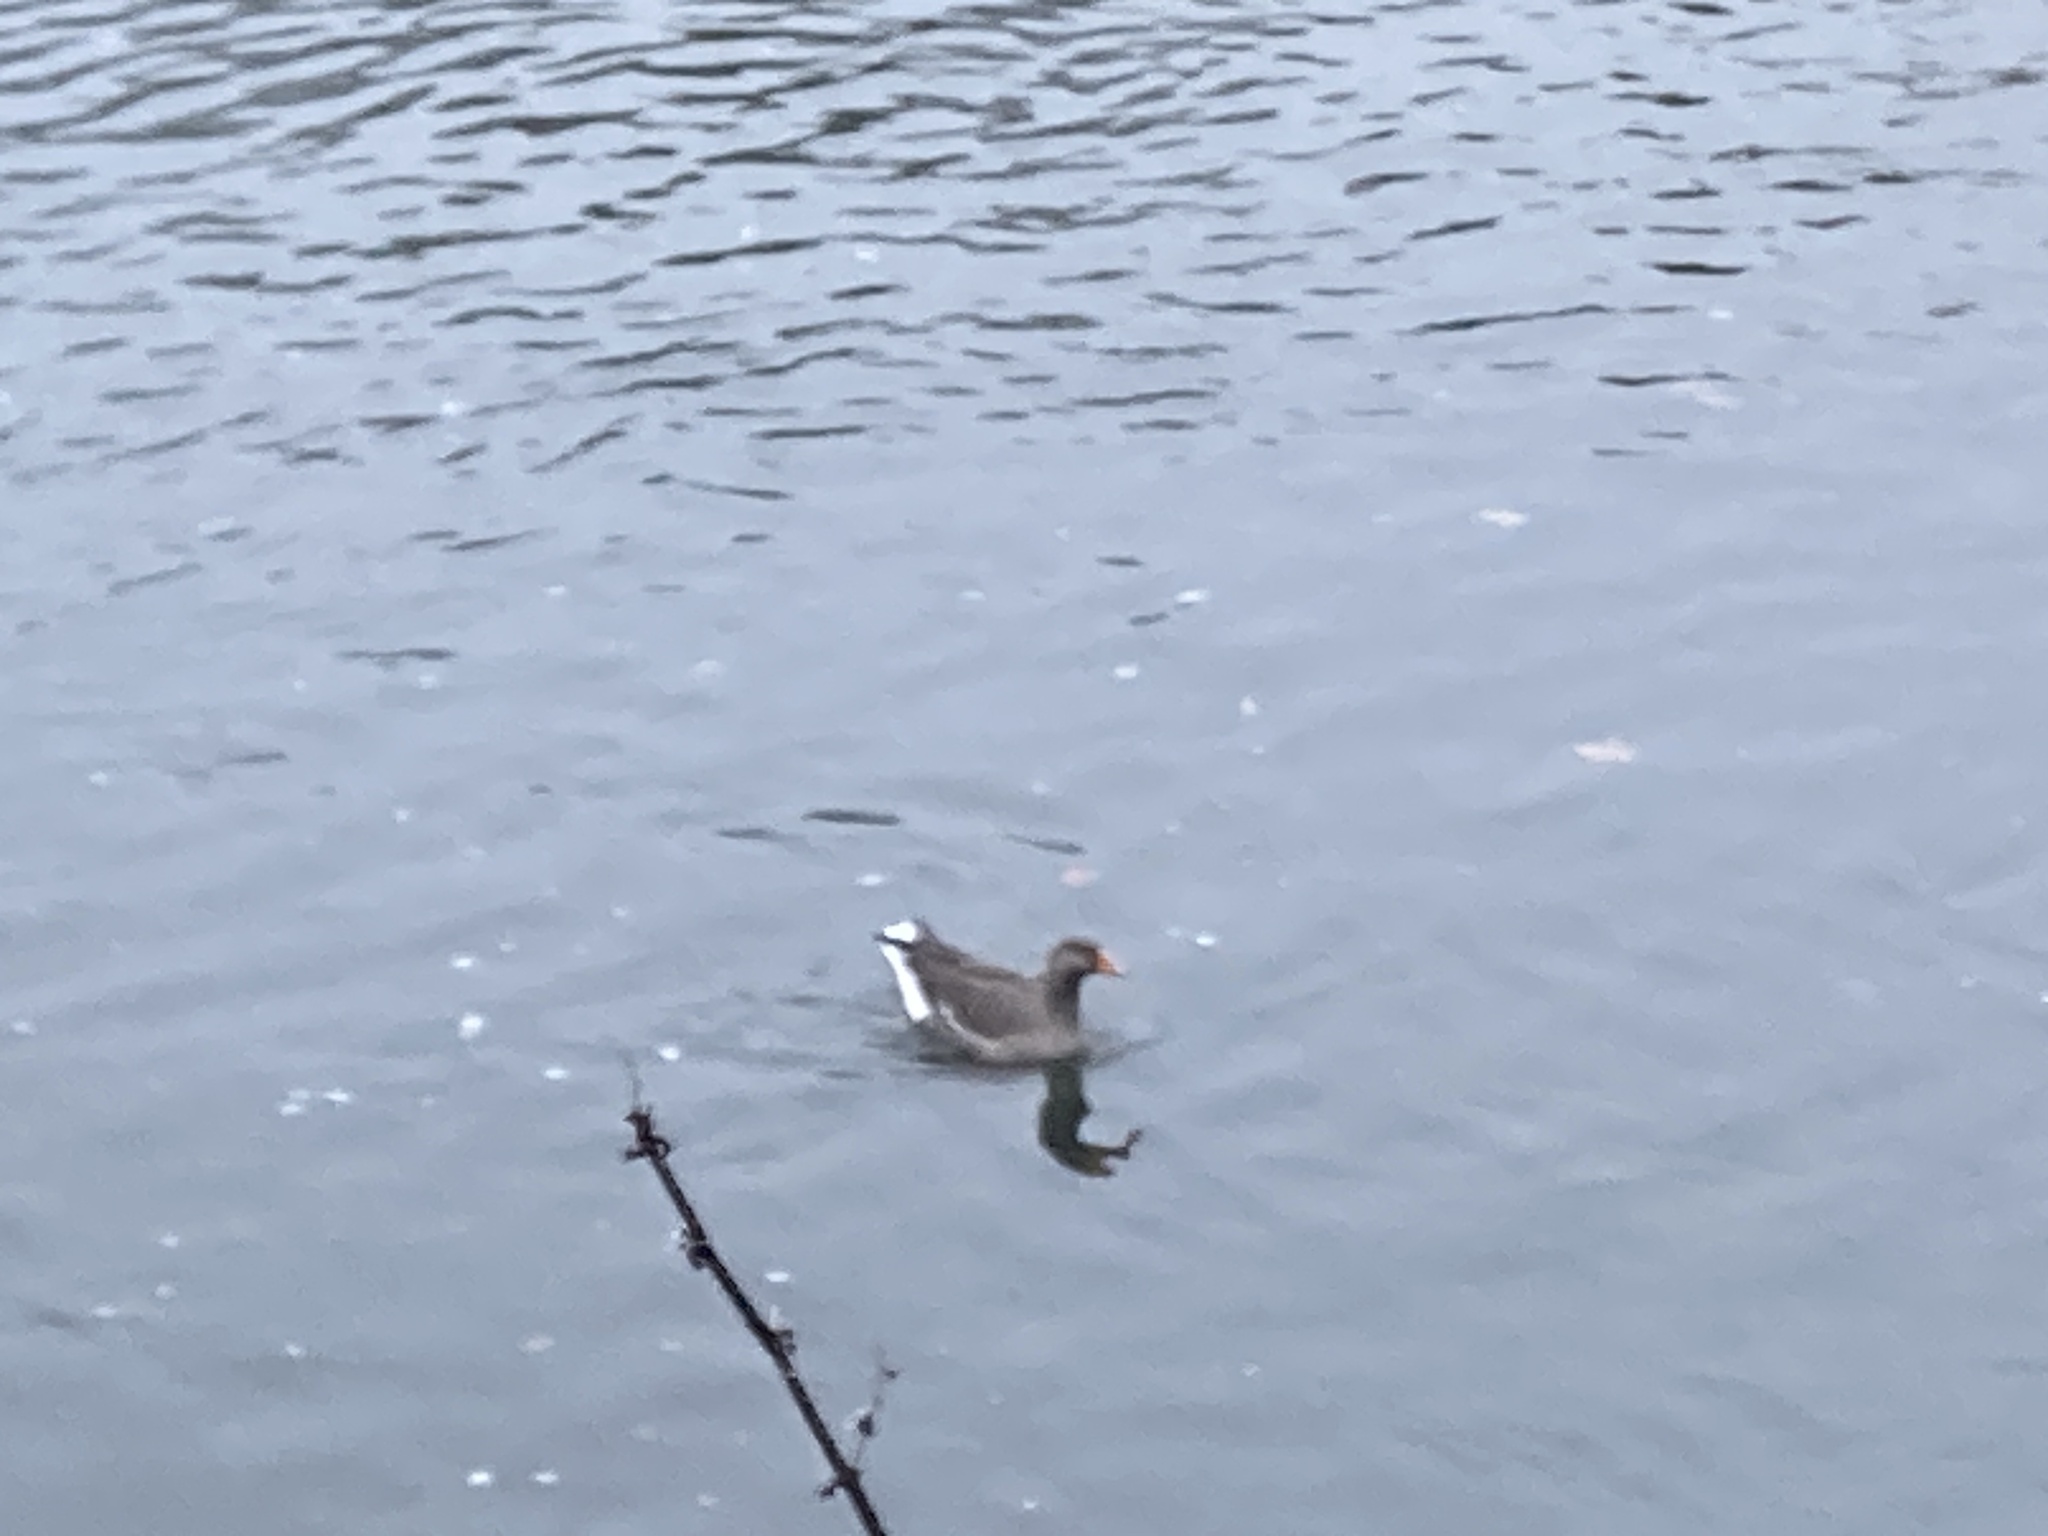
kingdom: Animalia
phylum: Chordata
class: Aves
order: Anseriformes
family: Anatidae
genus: Anser
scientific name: Anser anser
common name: Greylag goose
